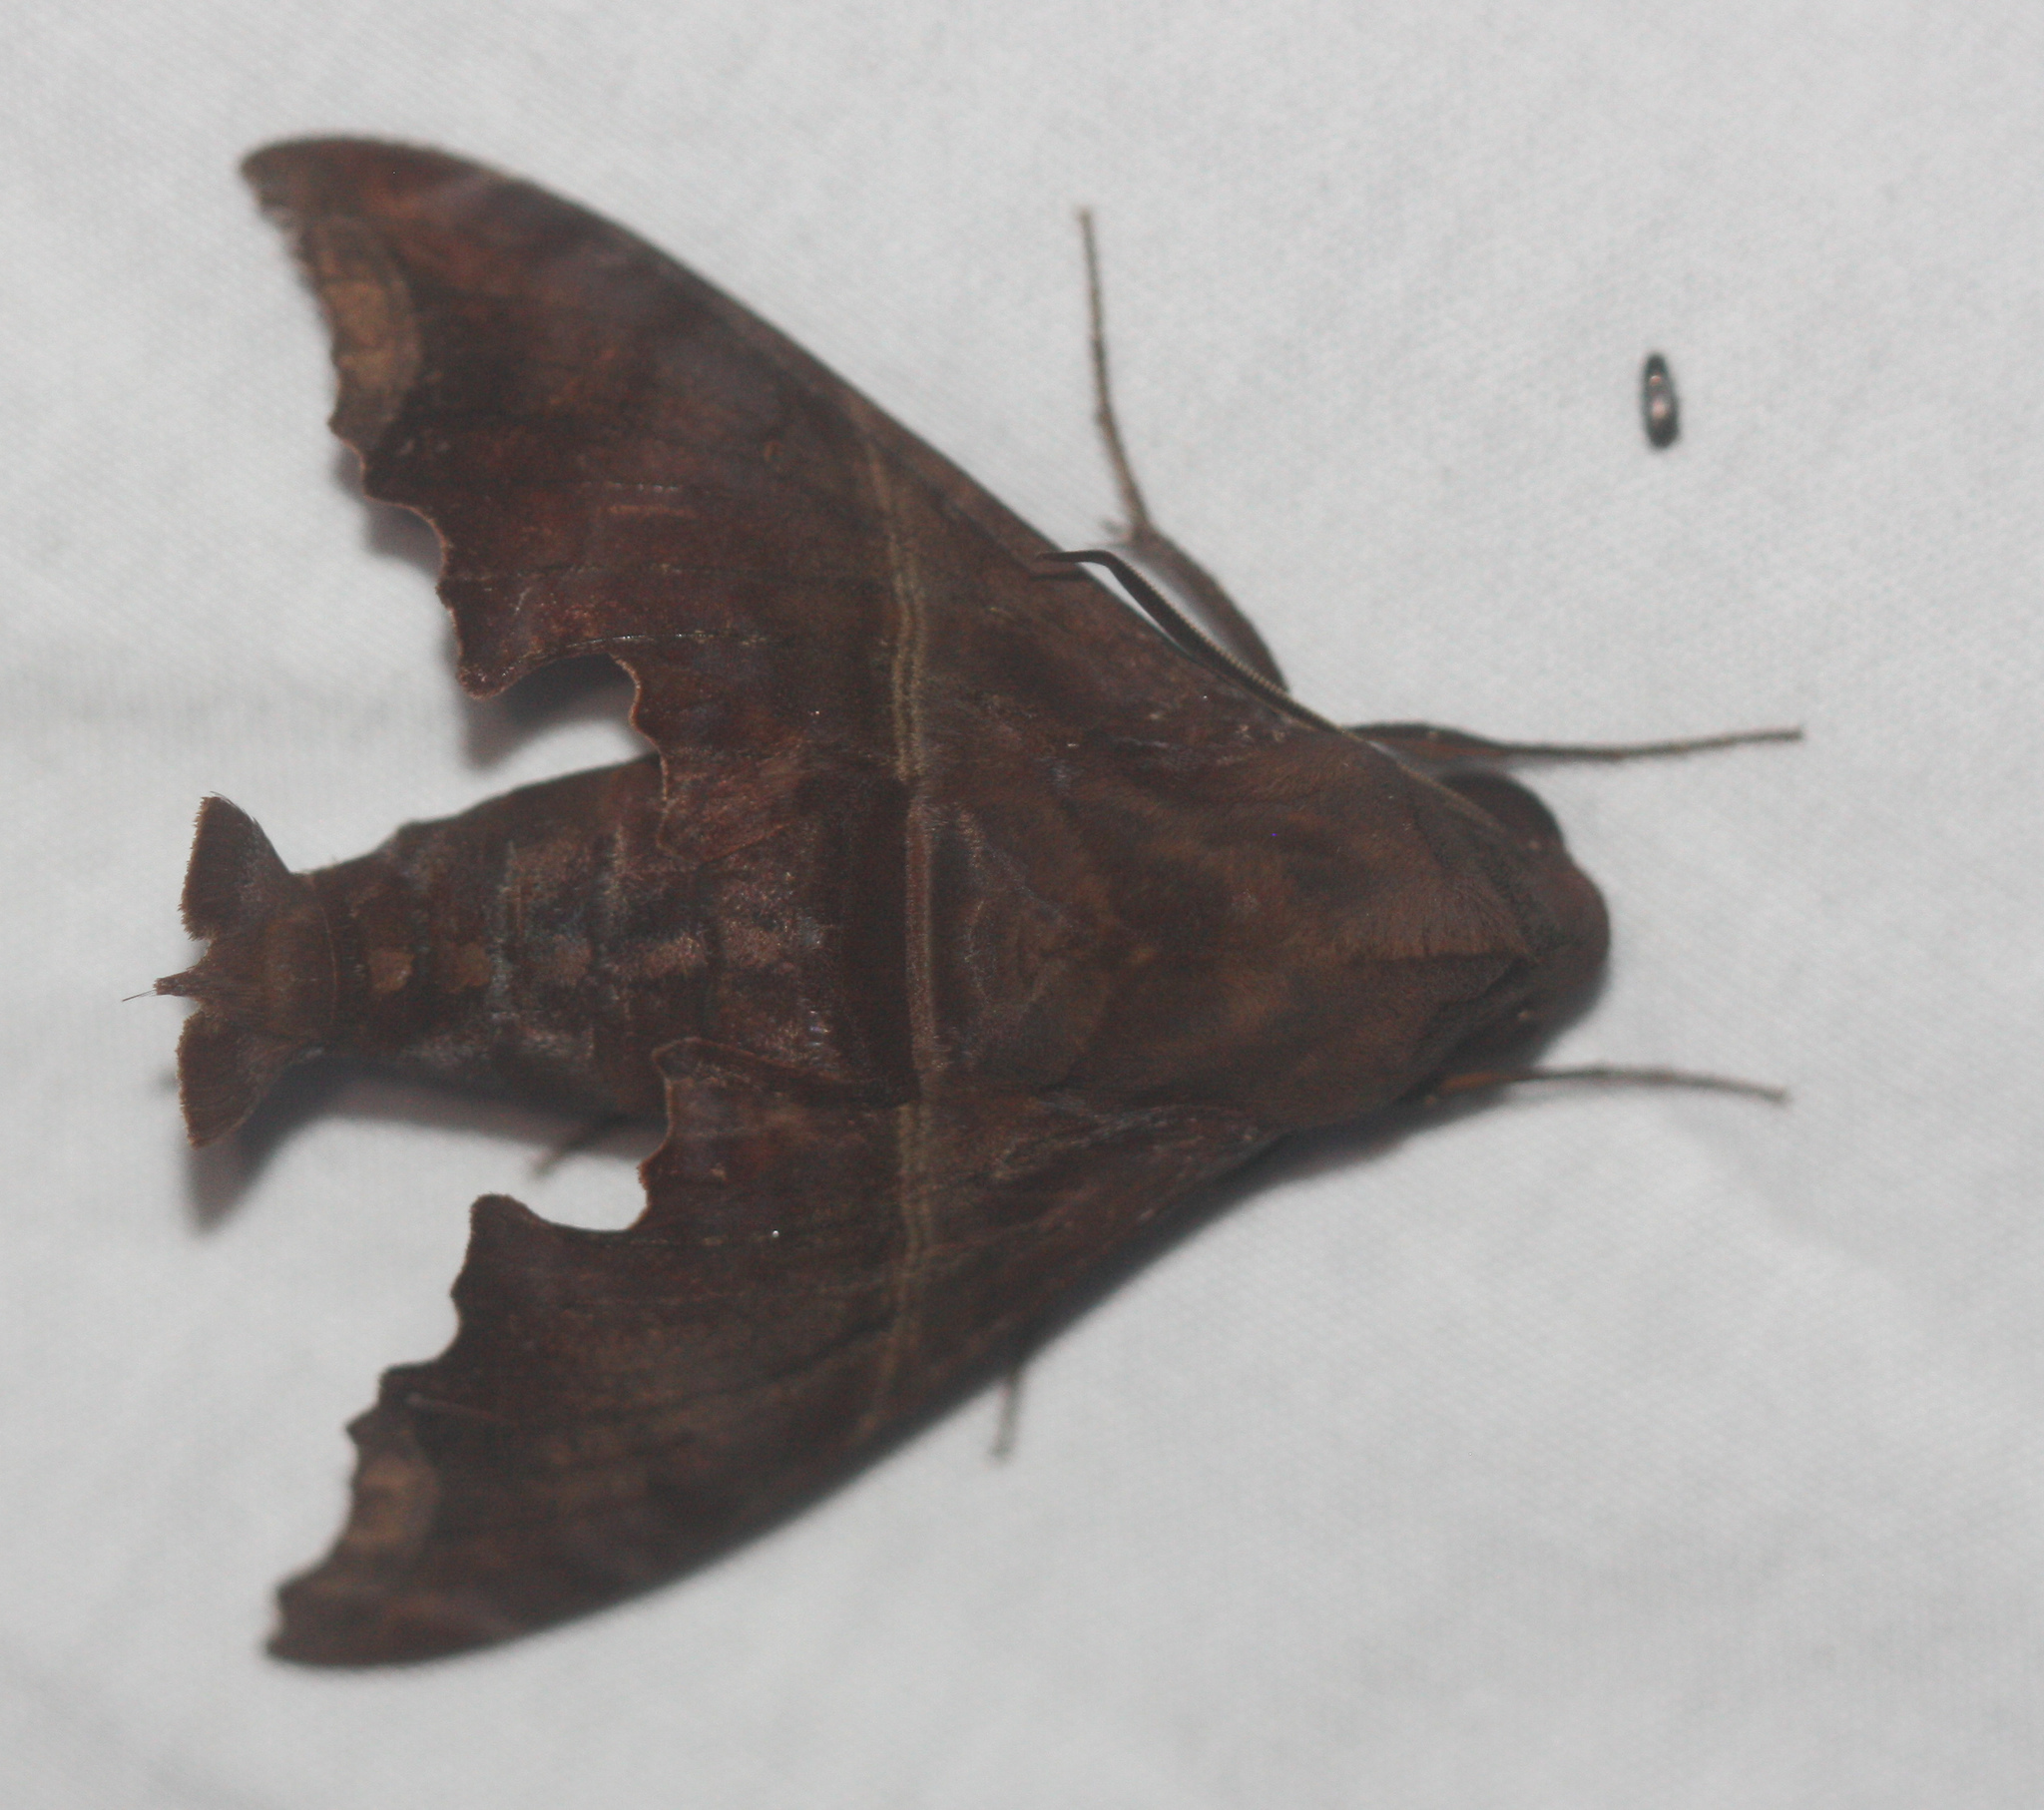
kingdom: Animalia
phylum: Arthropoda
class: Insecta
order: Lepidoptera
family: Sphingidae
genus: Enyo
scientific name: Enyo ocypete
